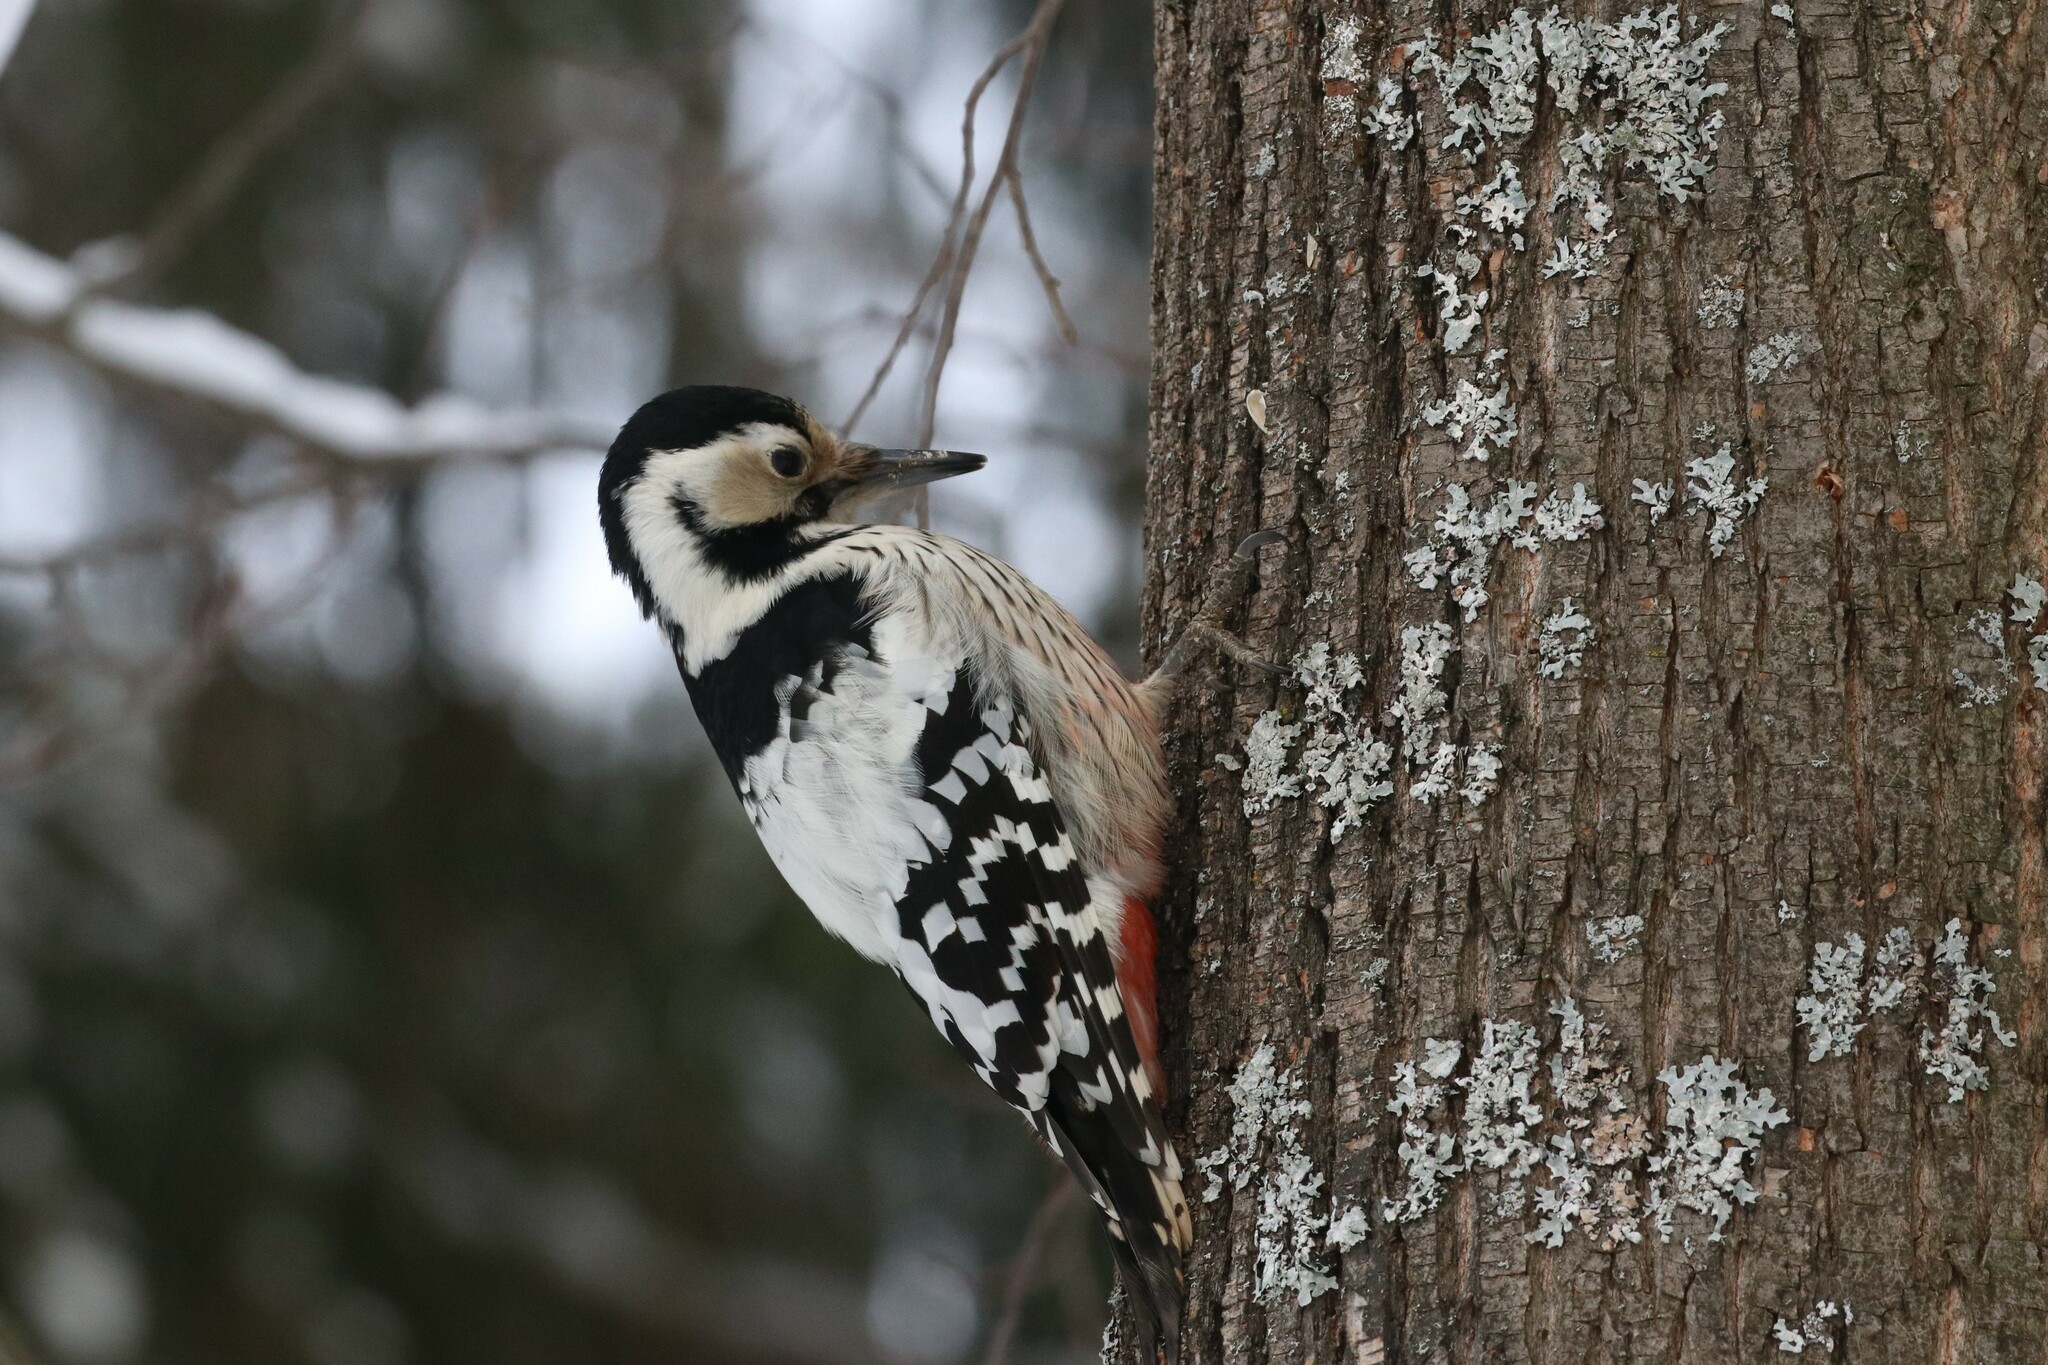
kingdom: Animalia
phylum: Chordata
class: Aves
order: Piciformes
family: Picidae
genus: Dendrocopos
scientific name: Dendrocopos leucotos
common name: White-backed woodpecker
